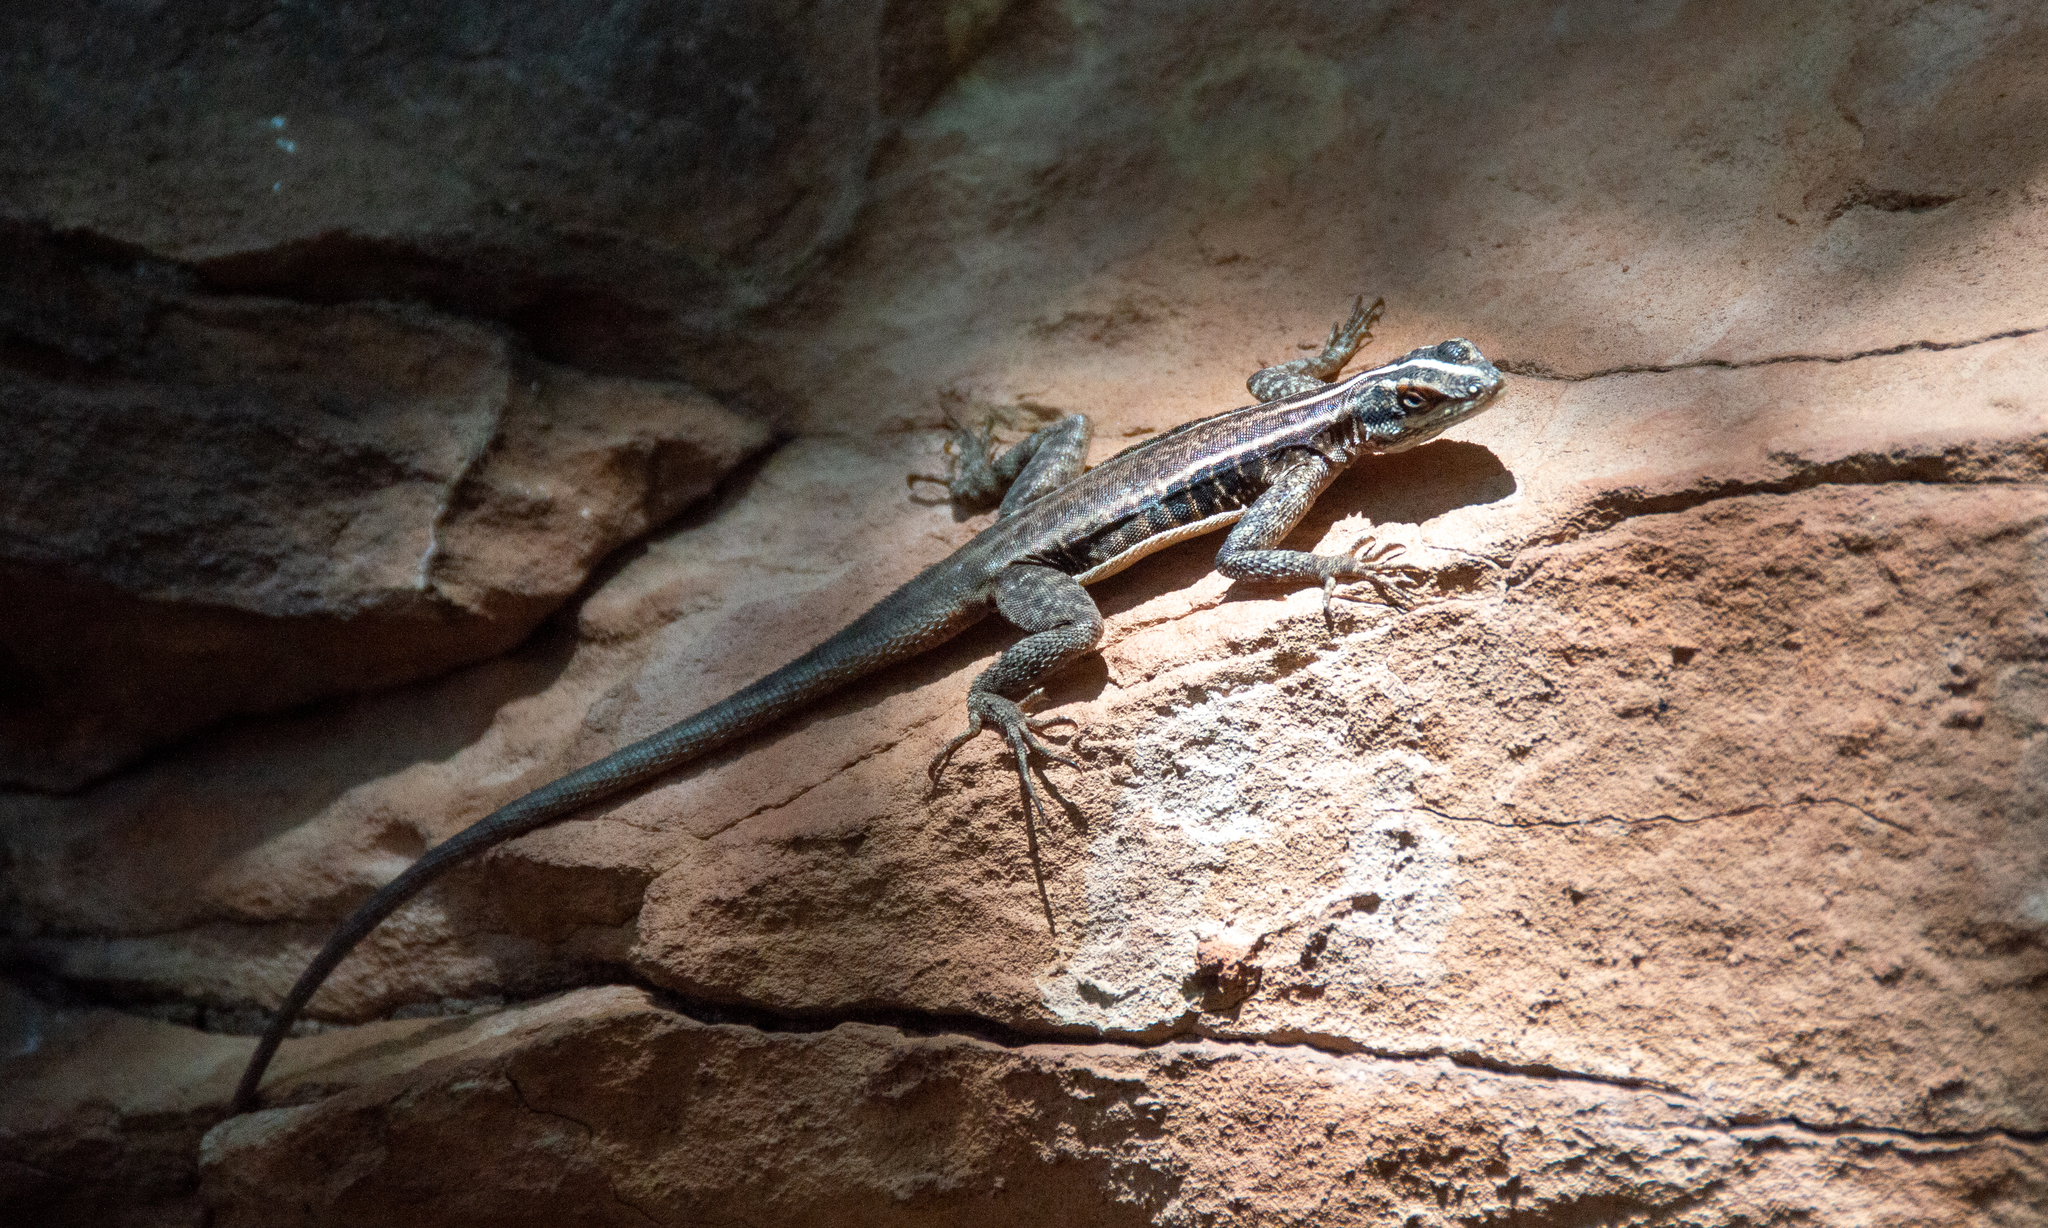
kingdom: Animalia
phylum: Chordata
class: Squamata
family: Tropiduridae
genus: Tropidurus
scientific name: Tropidurus helenae
